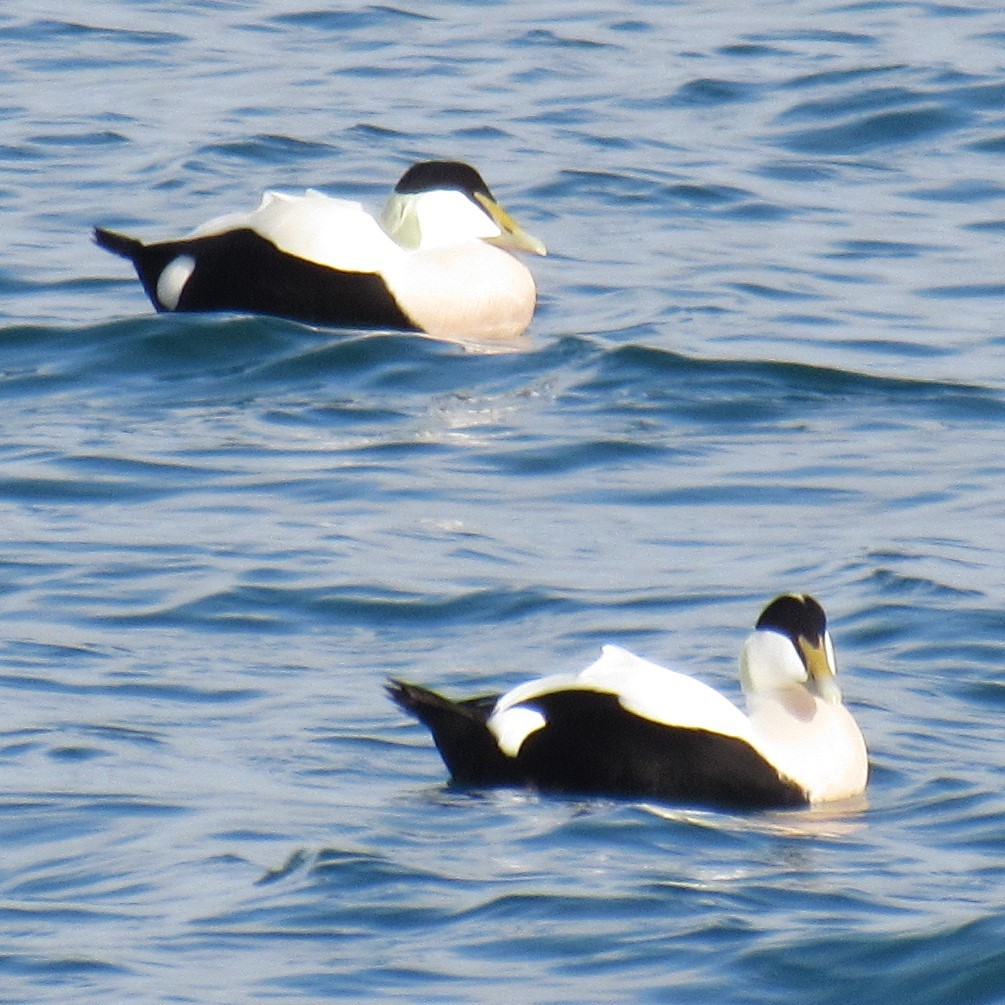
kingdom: Animalia
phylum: Chordata
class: Aves
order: Anseriformes
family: Anatidae
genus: Somateria
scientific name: Somateria mollissima
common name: Common eider
